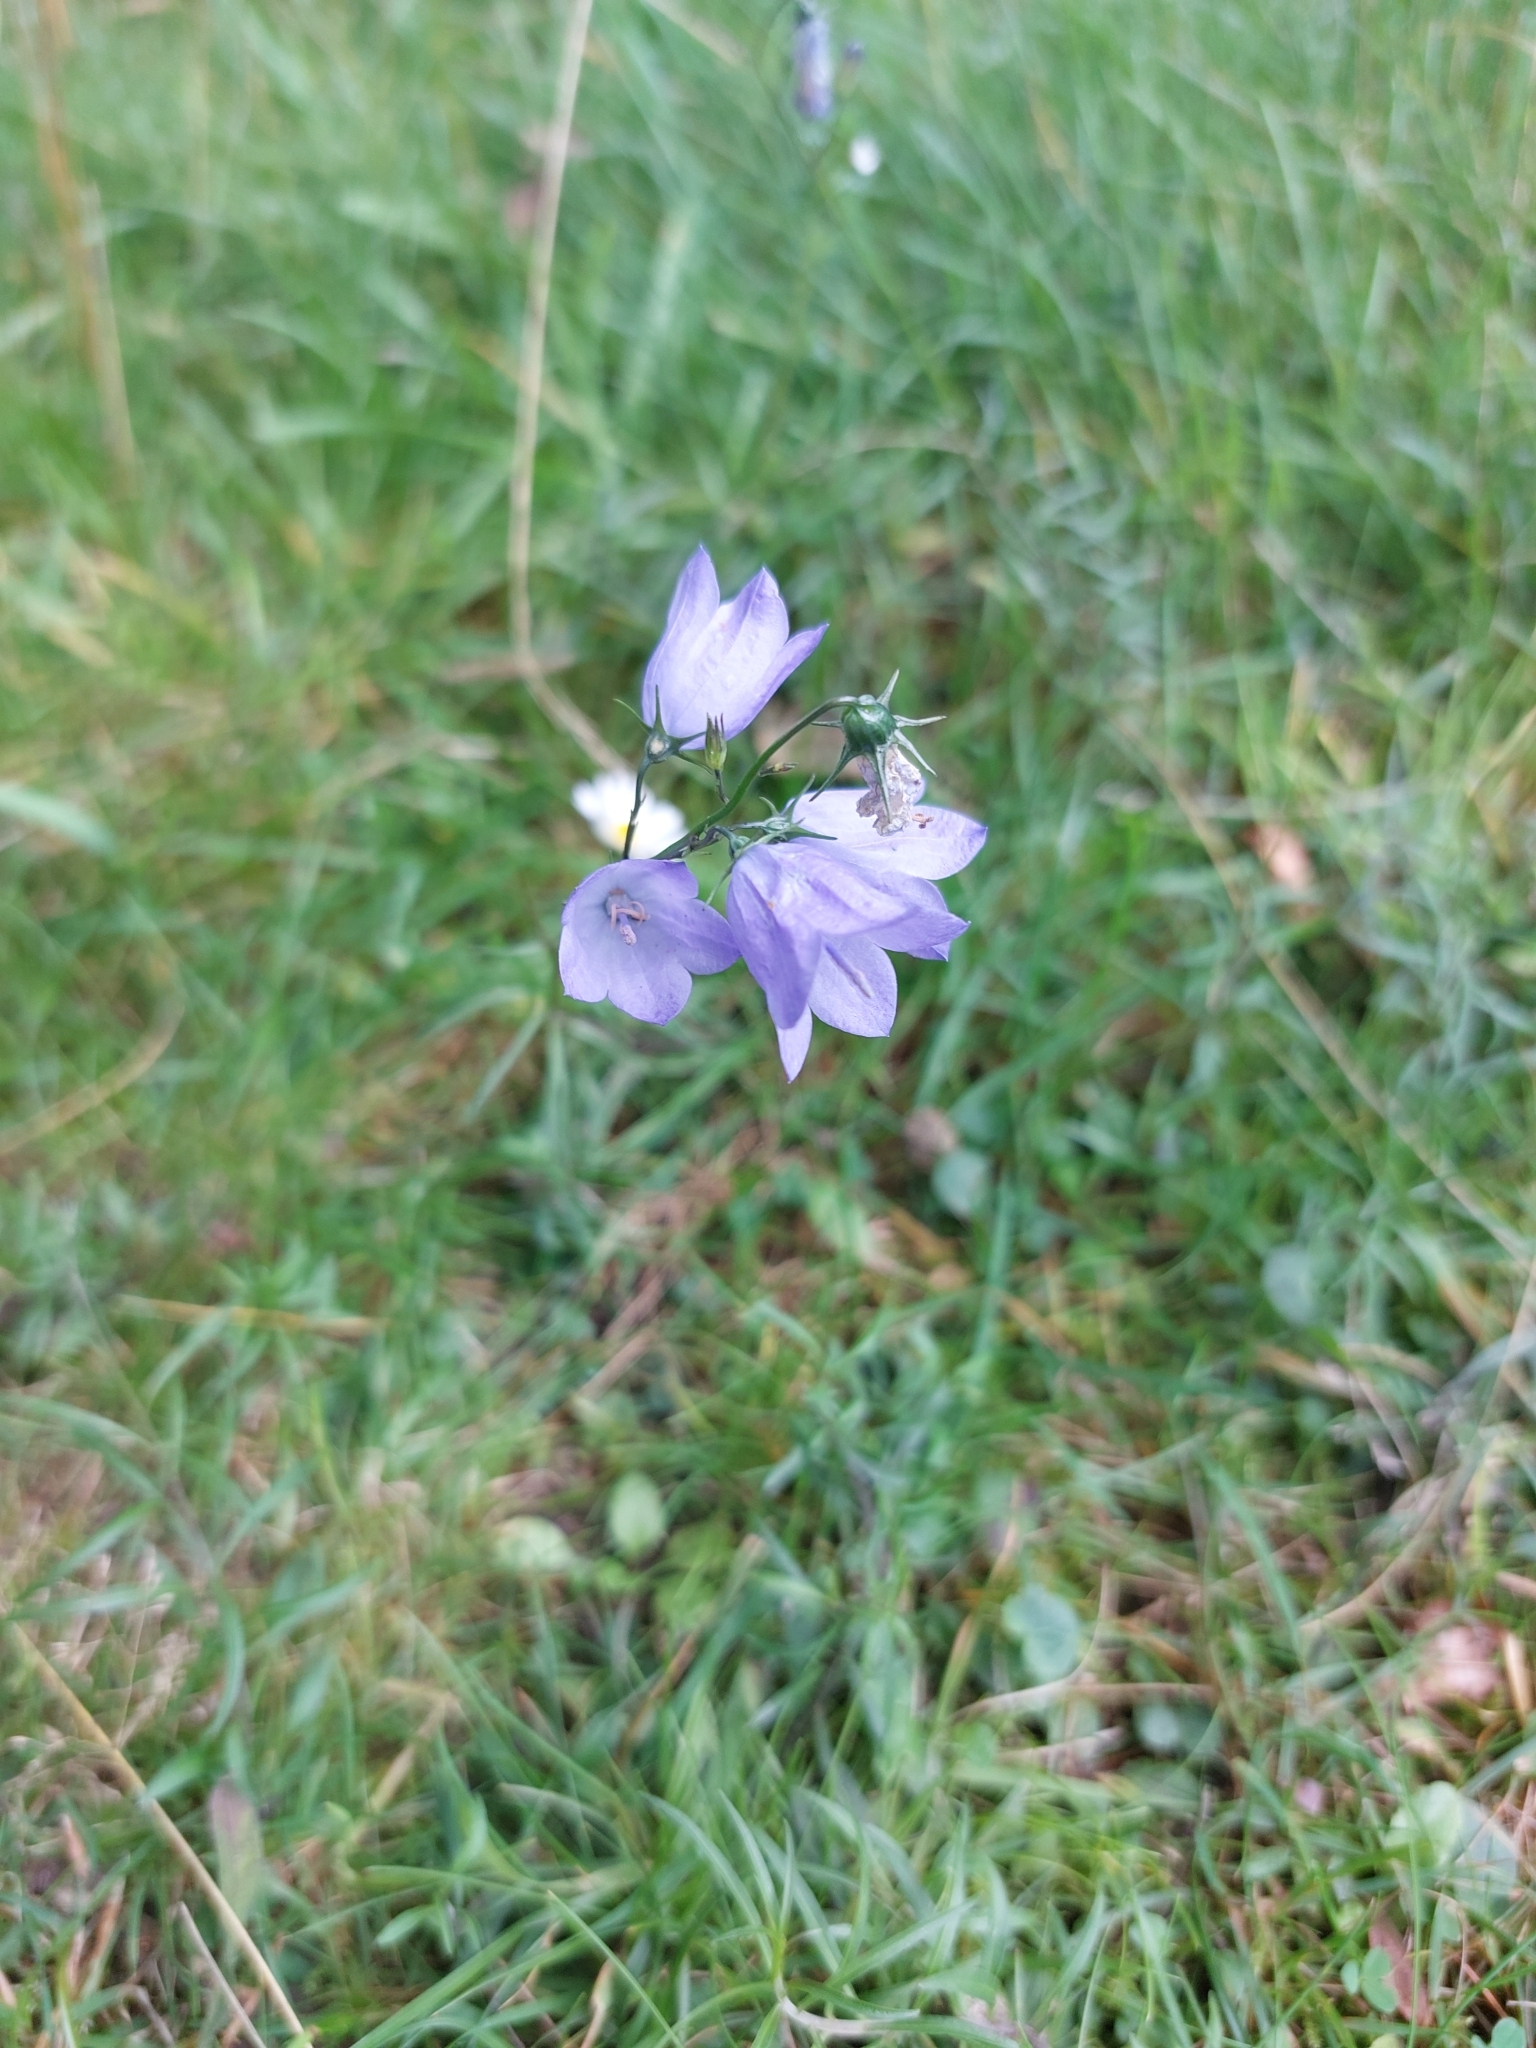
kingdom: Plantae
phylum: Tracheophyta
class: Magnoliopsida
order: Asterales
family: Campanulaceae
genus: Campanula
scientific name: Campanula rotundifolia
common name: Harebell
